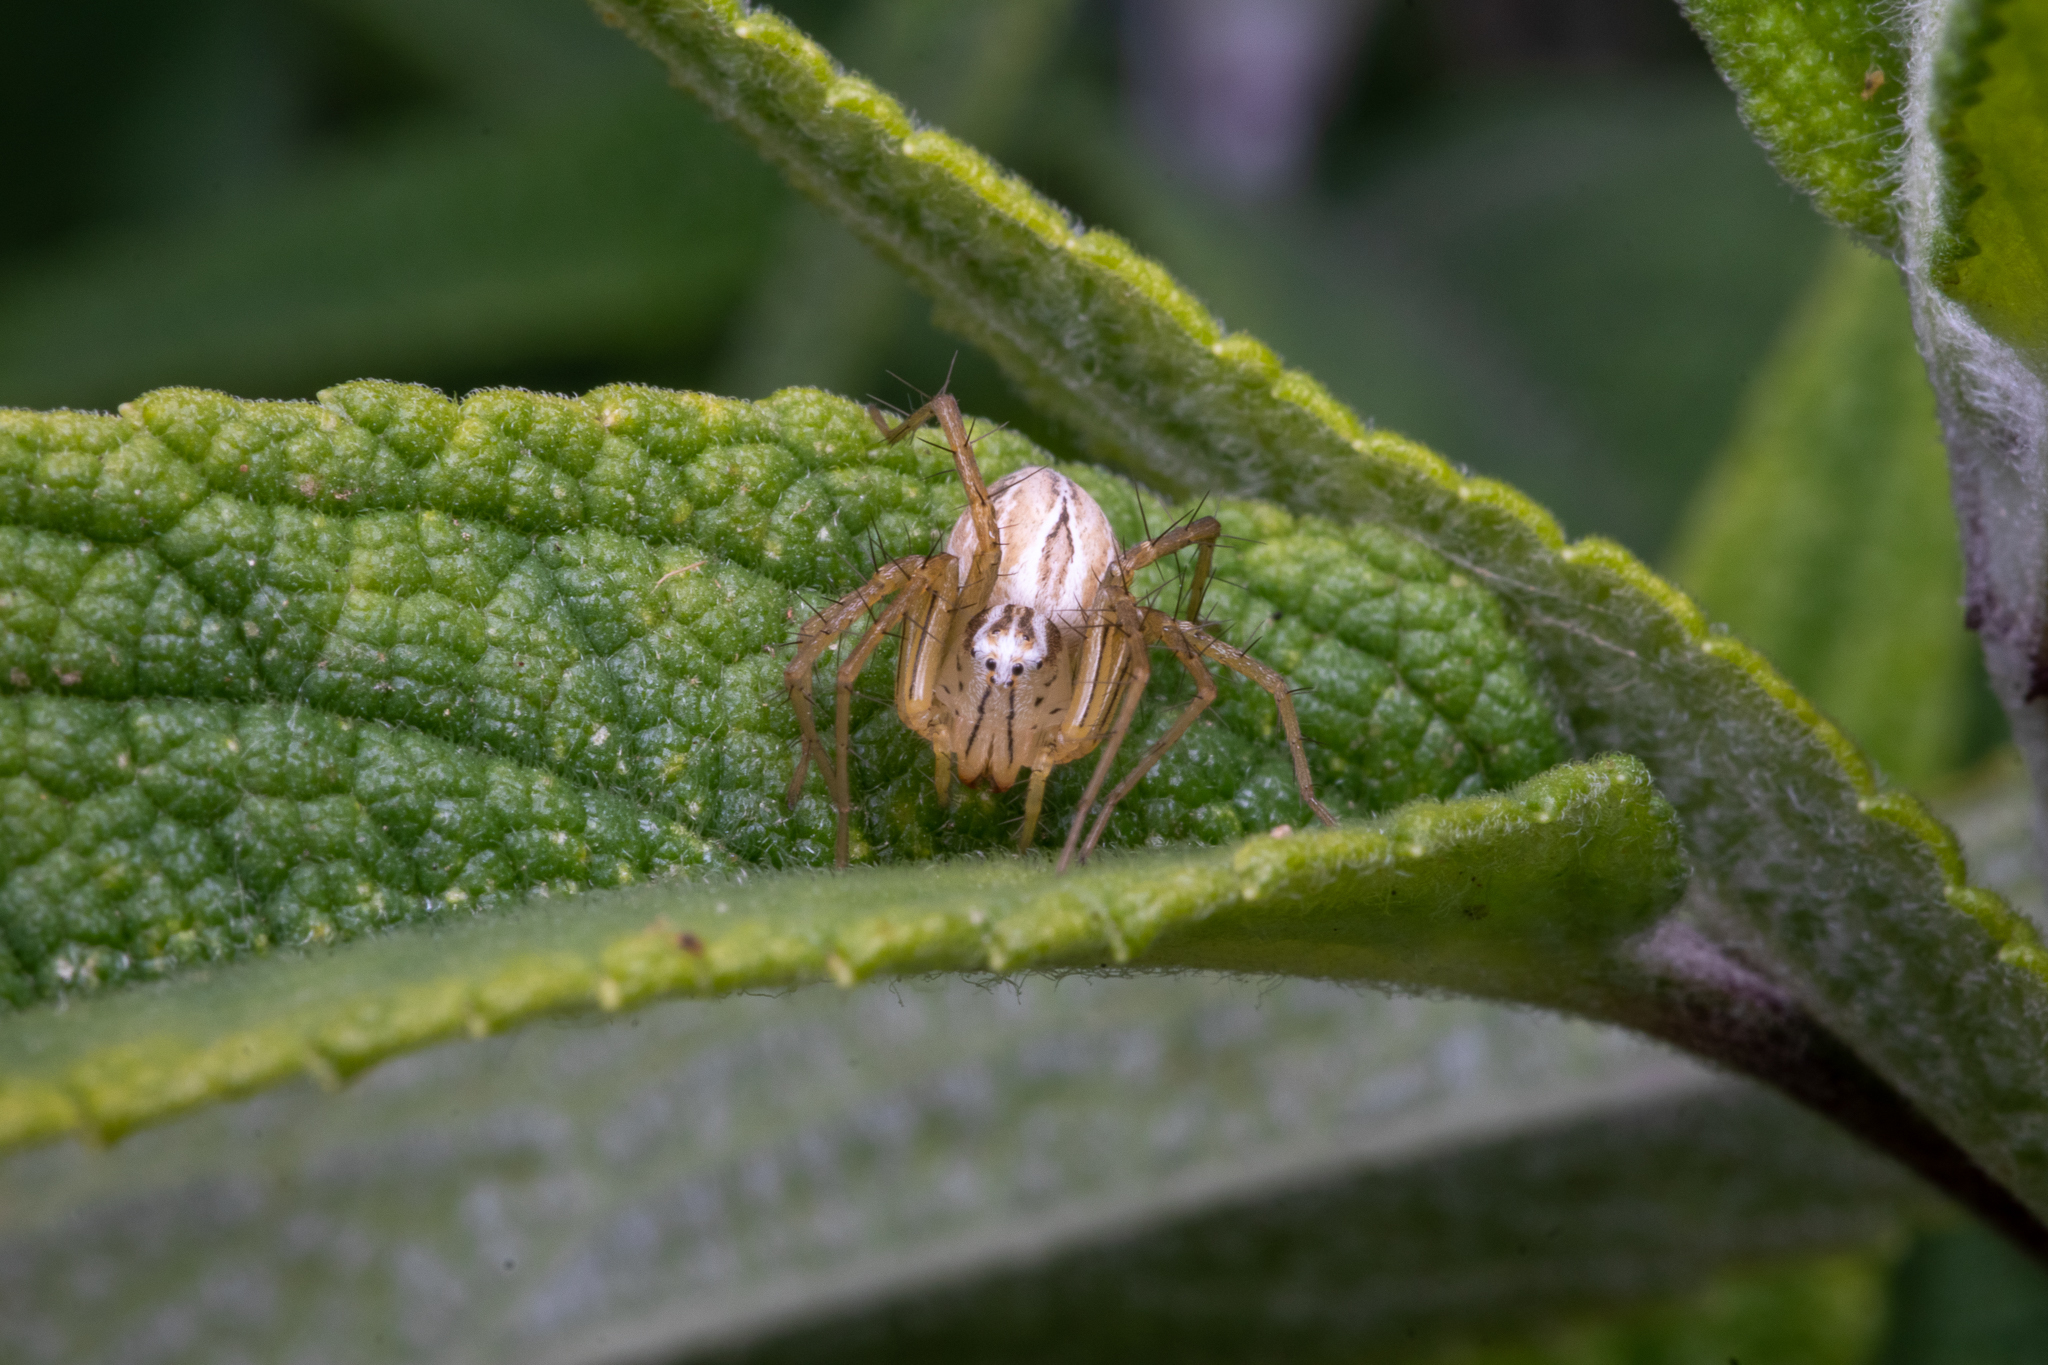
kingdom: Animalia
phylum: Arthropoda
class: Arachnida
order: Araneae
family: Oxyopidae
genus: Oxyopes
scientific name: Oxyopes salticus
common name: Lynx spiders
